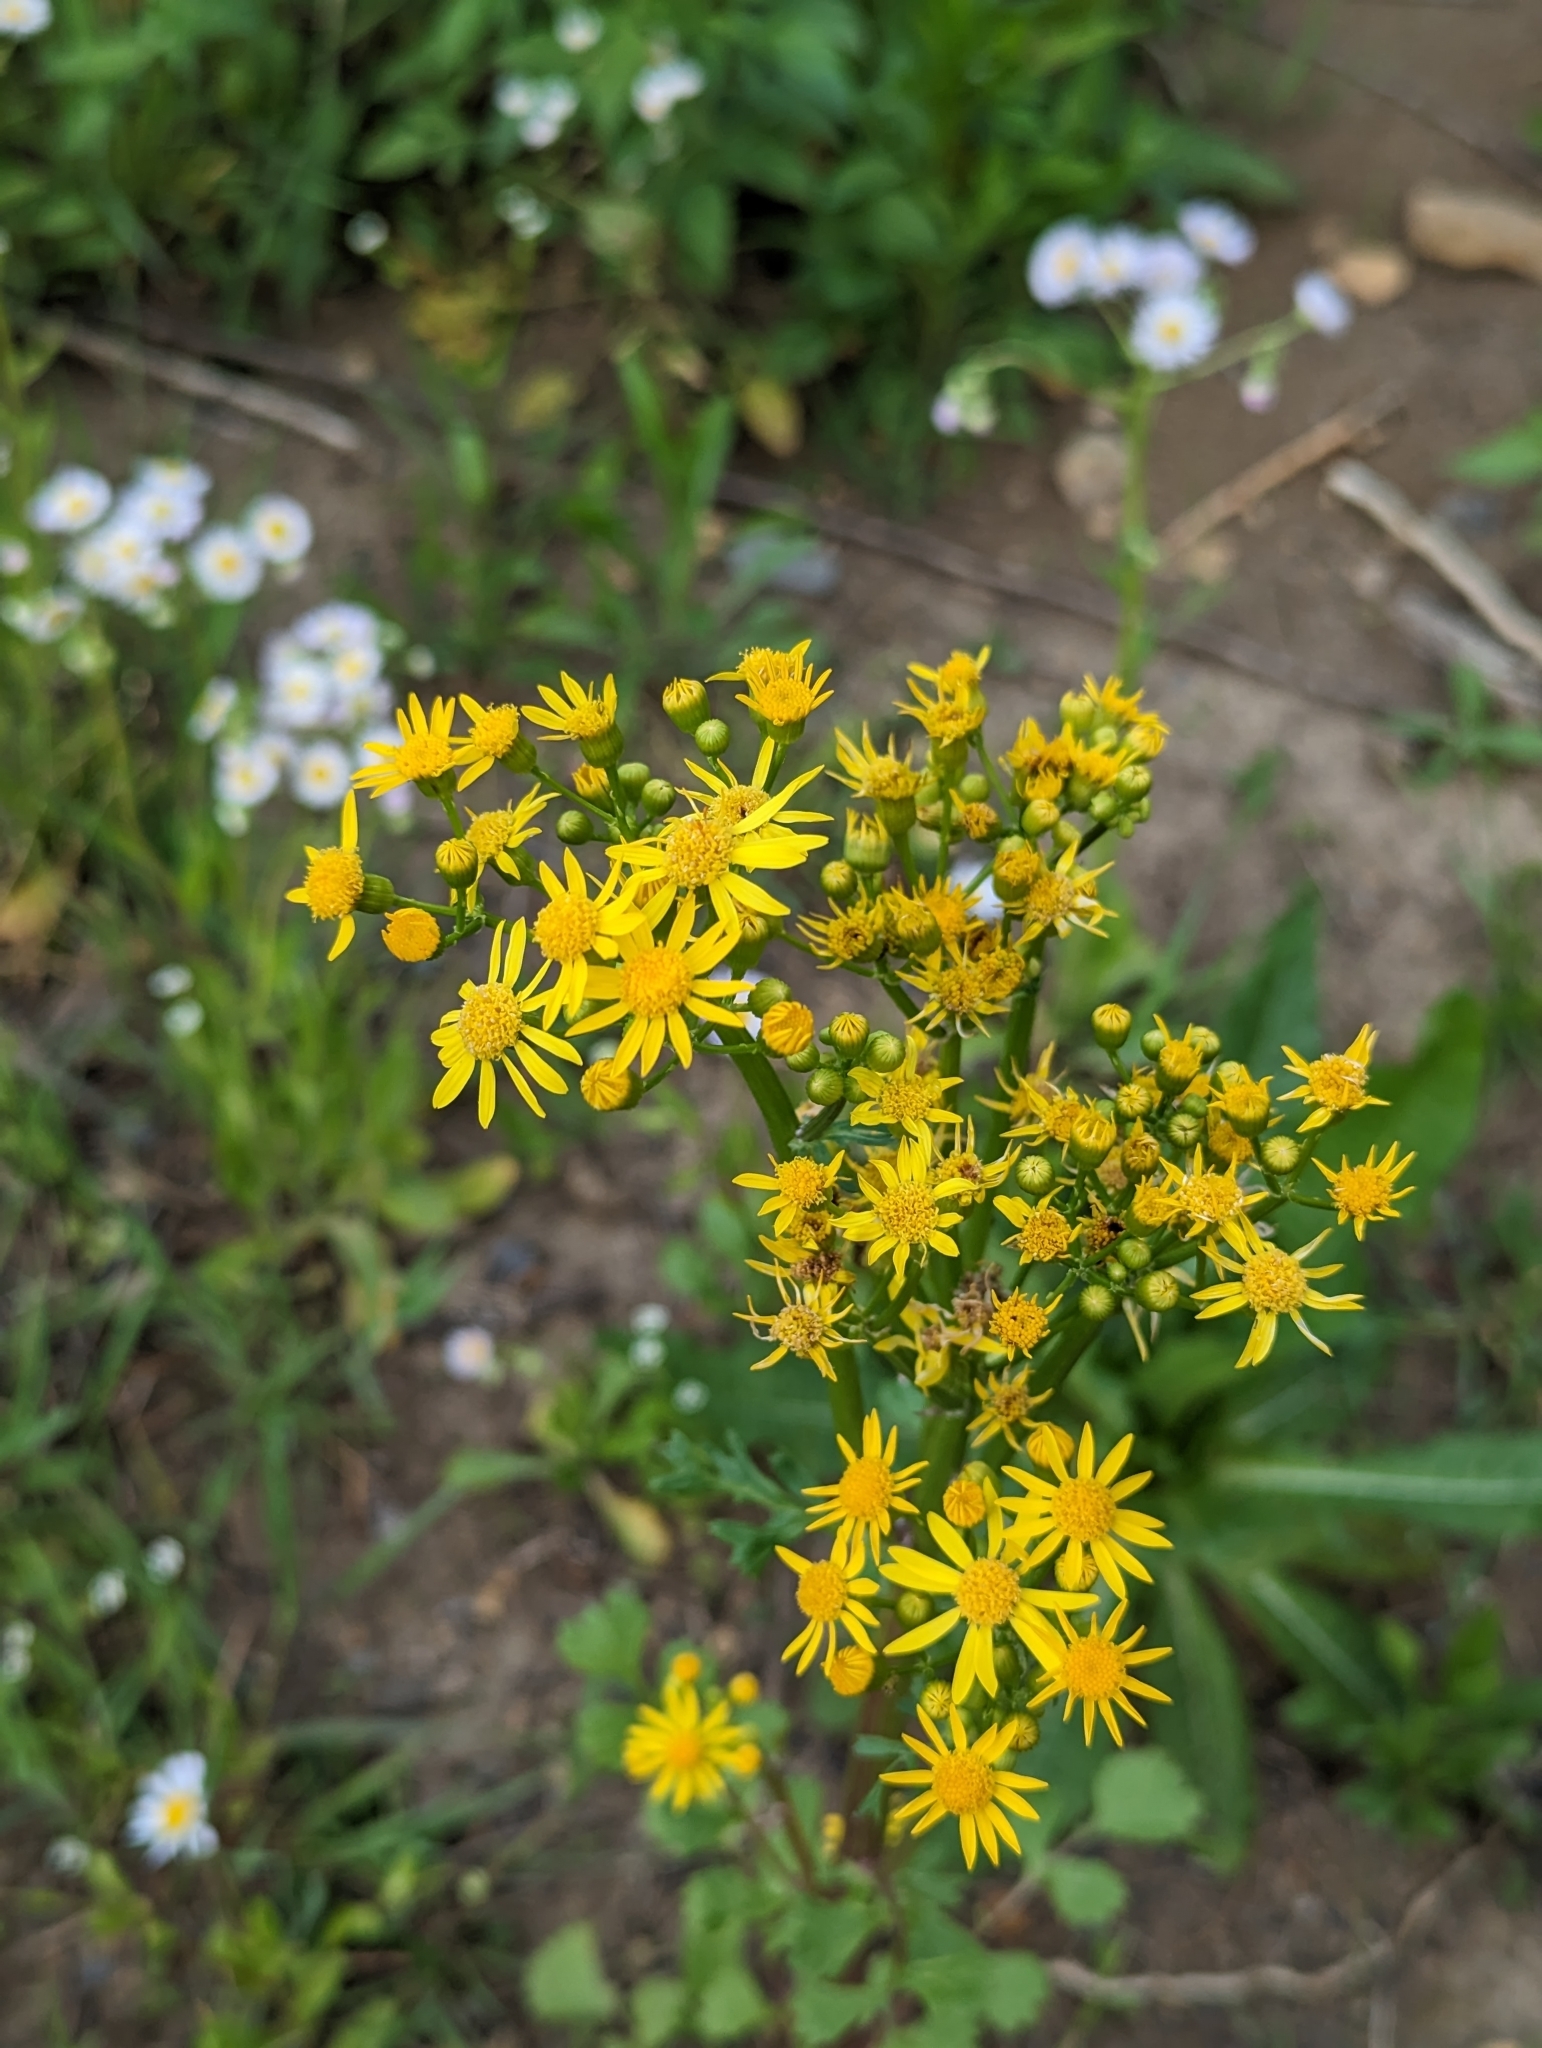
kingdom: Plantae
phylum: Tracheophyta
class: Magnoliopsida
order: Asterales
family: Asteraceae
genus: Packera
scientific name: Packera glabella
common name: Butterweed
